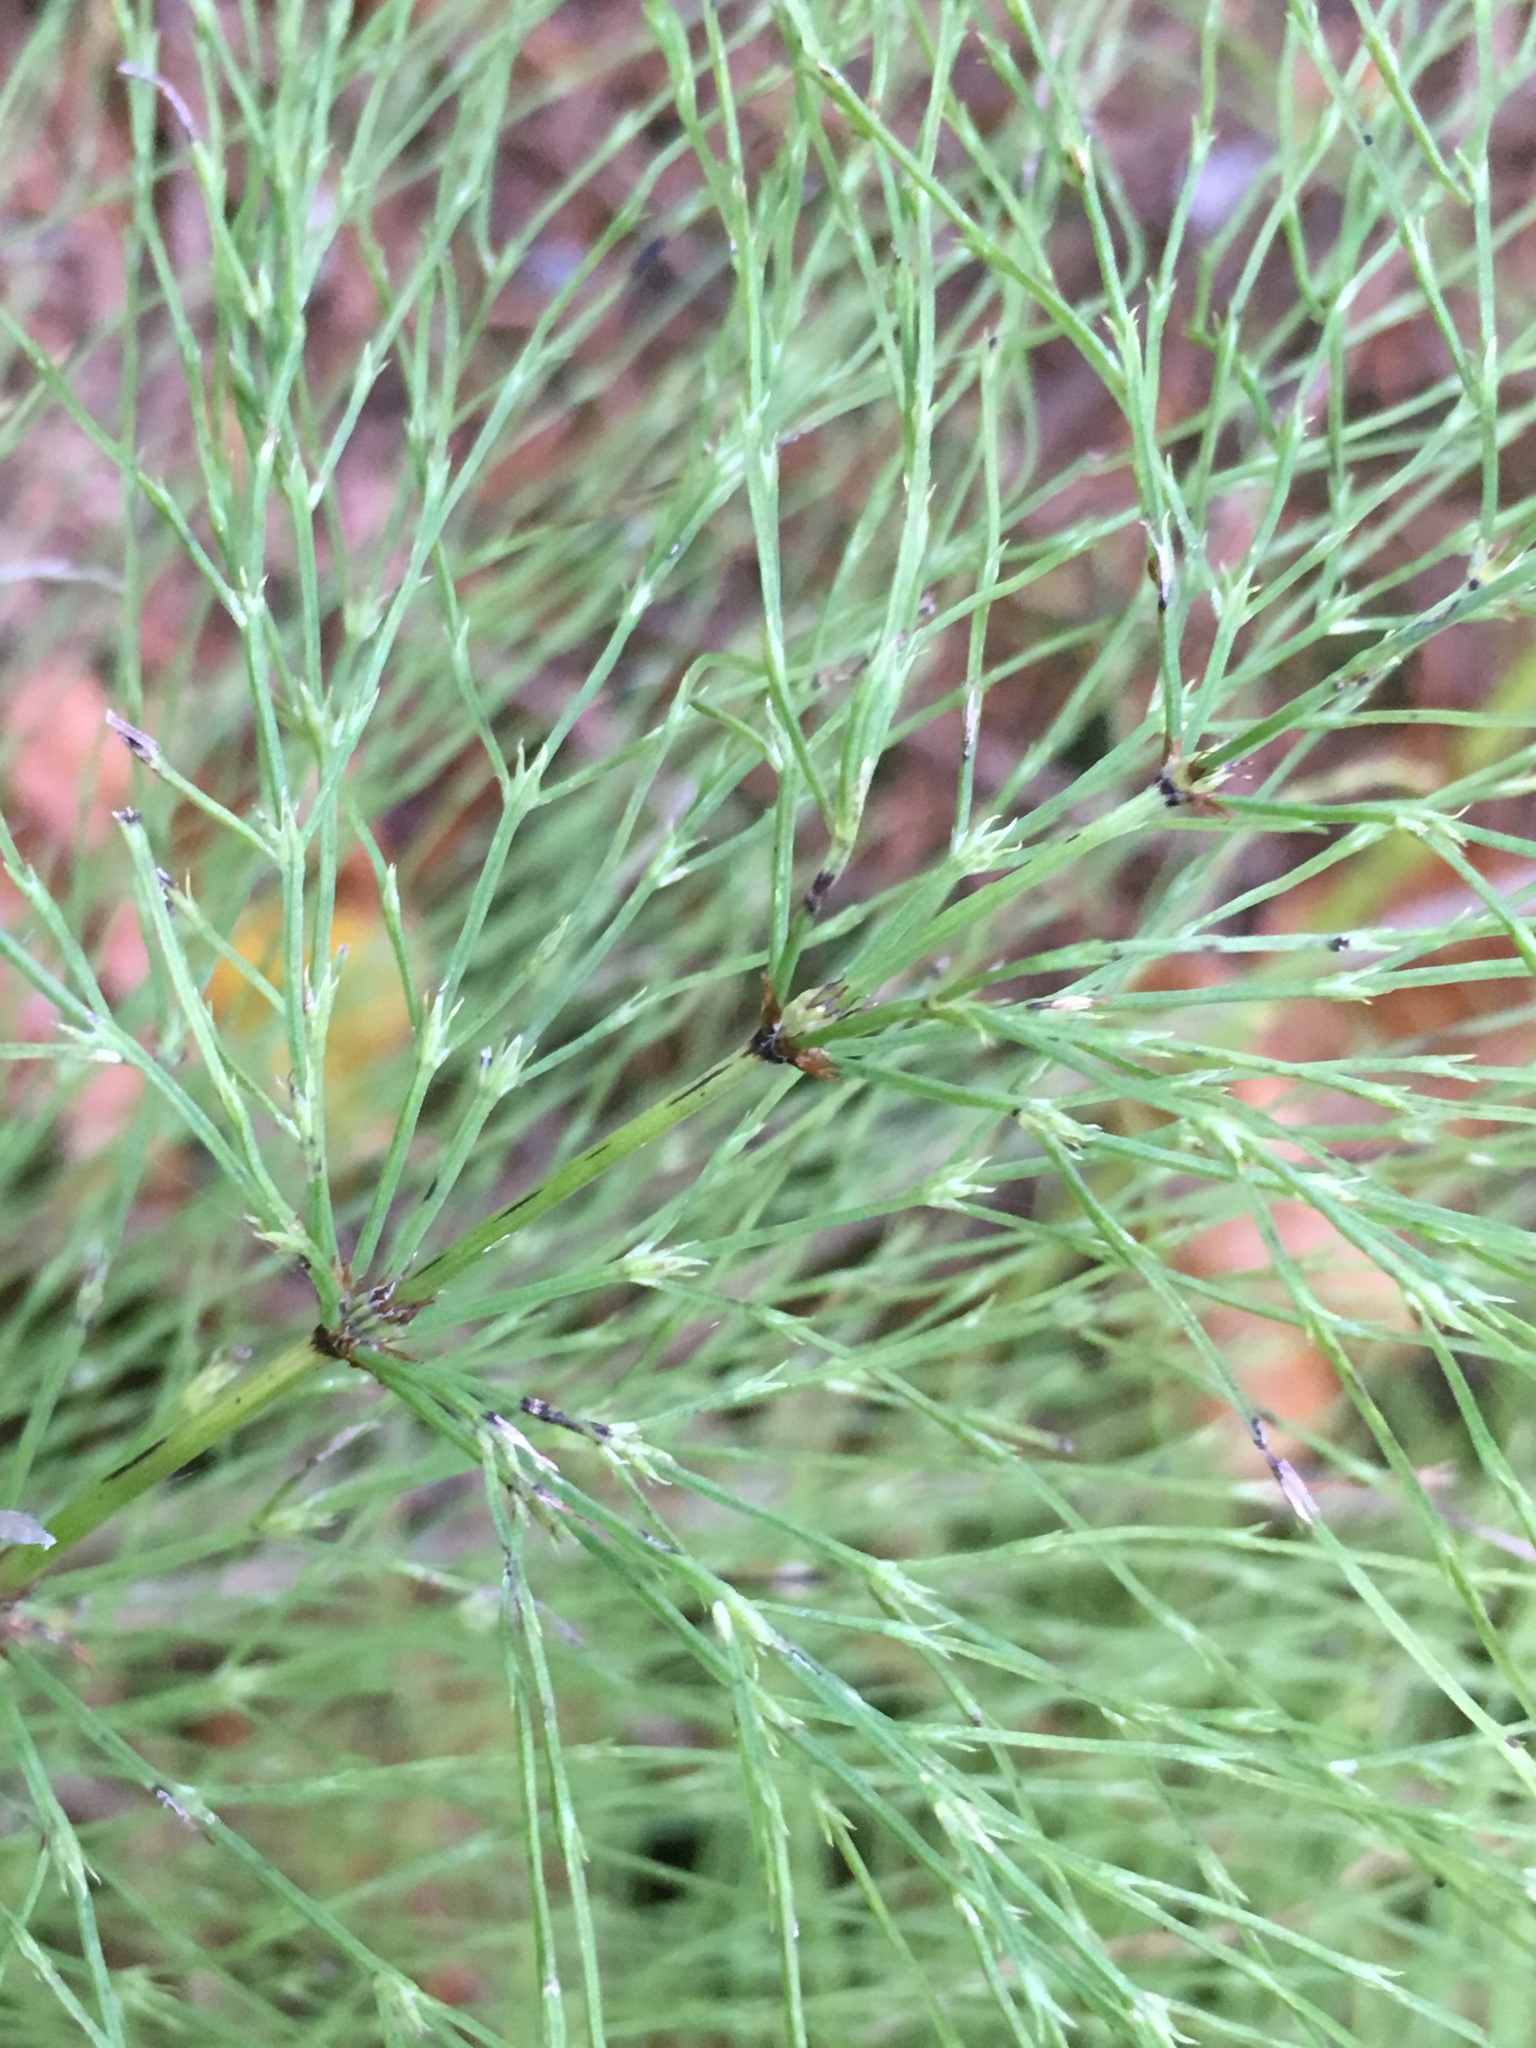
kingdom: Plantae
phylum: Tracheophyta
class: Polypodiopsida
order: Equisetales
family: Equisetaceae
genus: Equisetum
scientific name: Equisetum sylvaticum
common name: Wood horsetail
